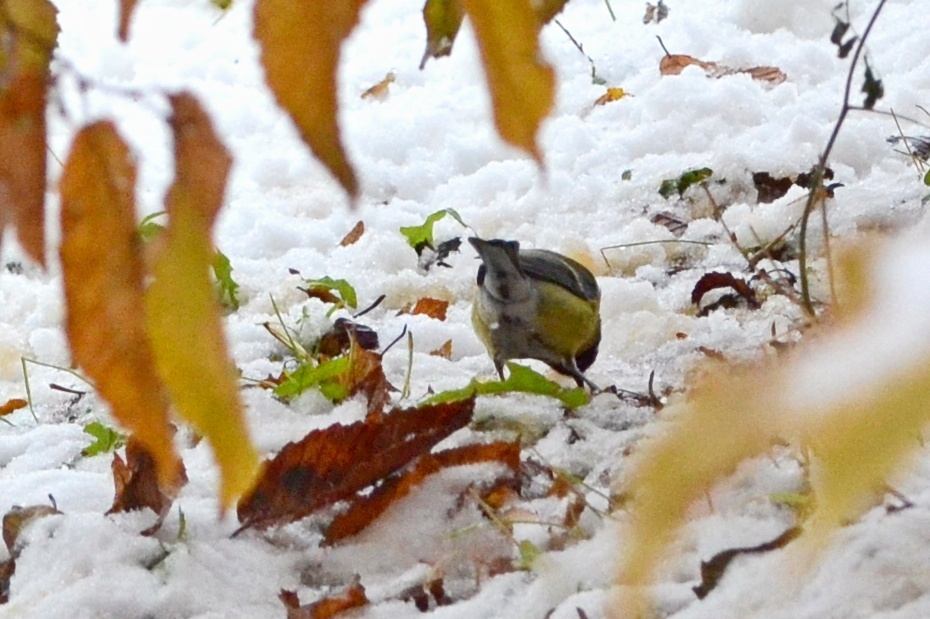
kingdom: Animalia
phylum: Chordata
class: Aves
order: Passeriformes
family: Paridae
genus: Parus
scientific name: Parus major
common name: Great tit
